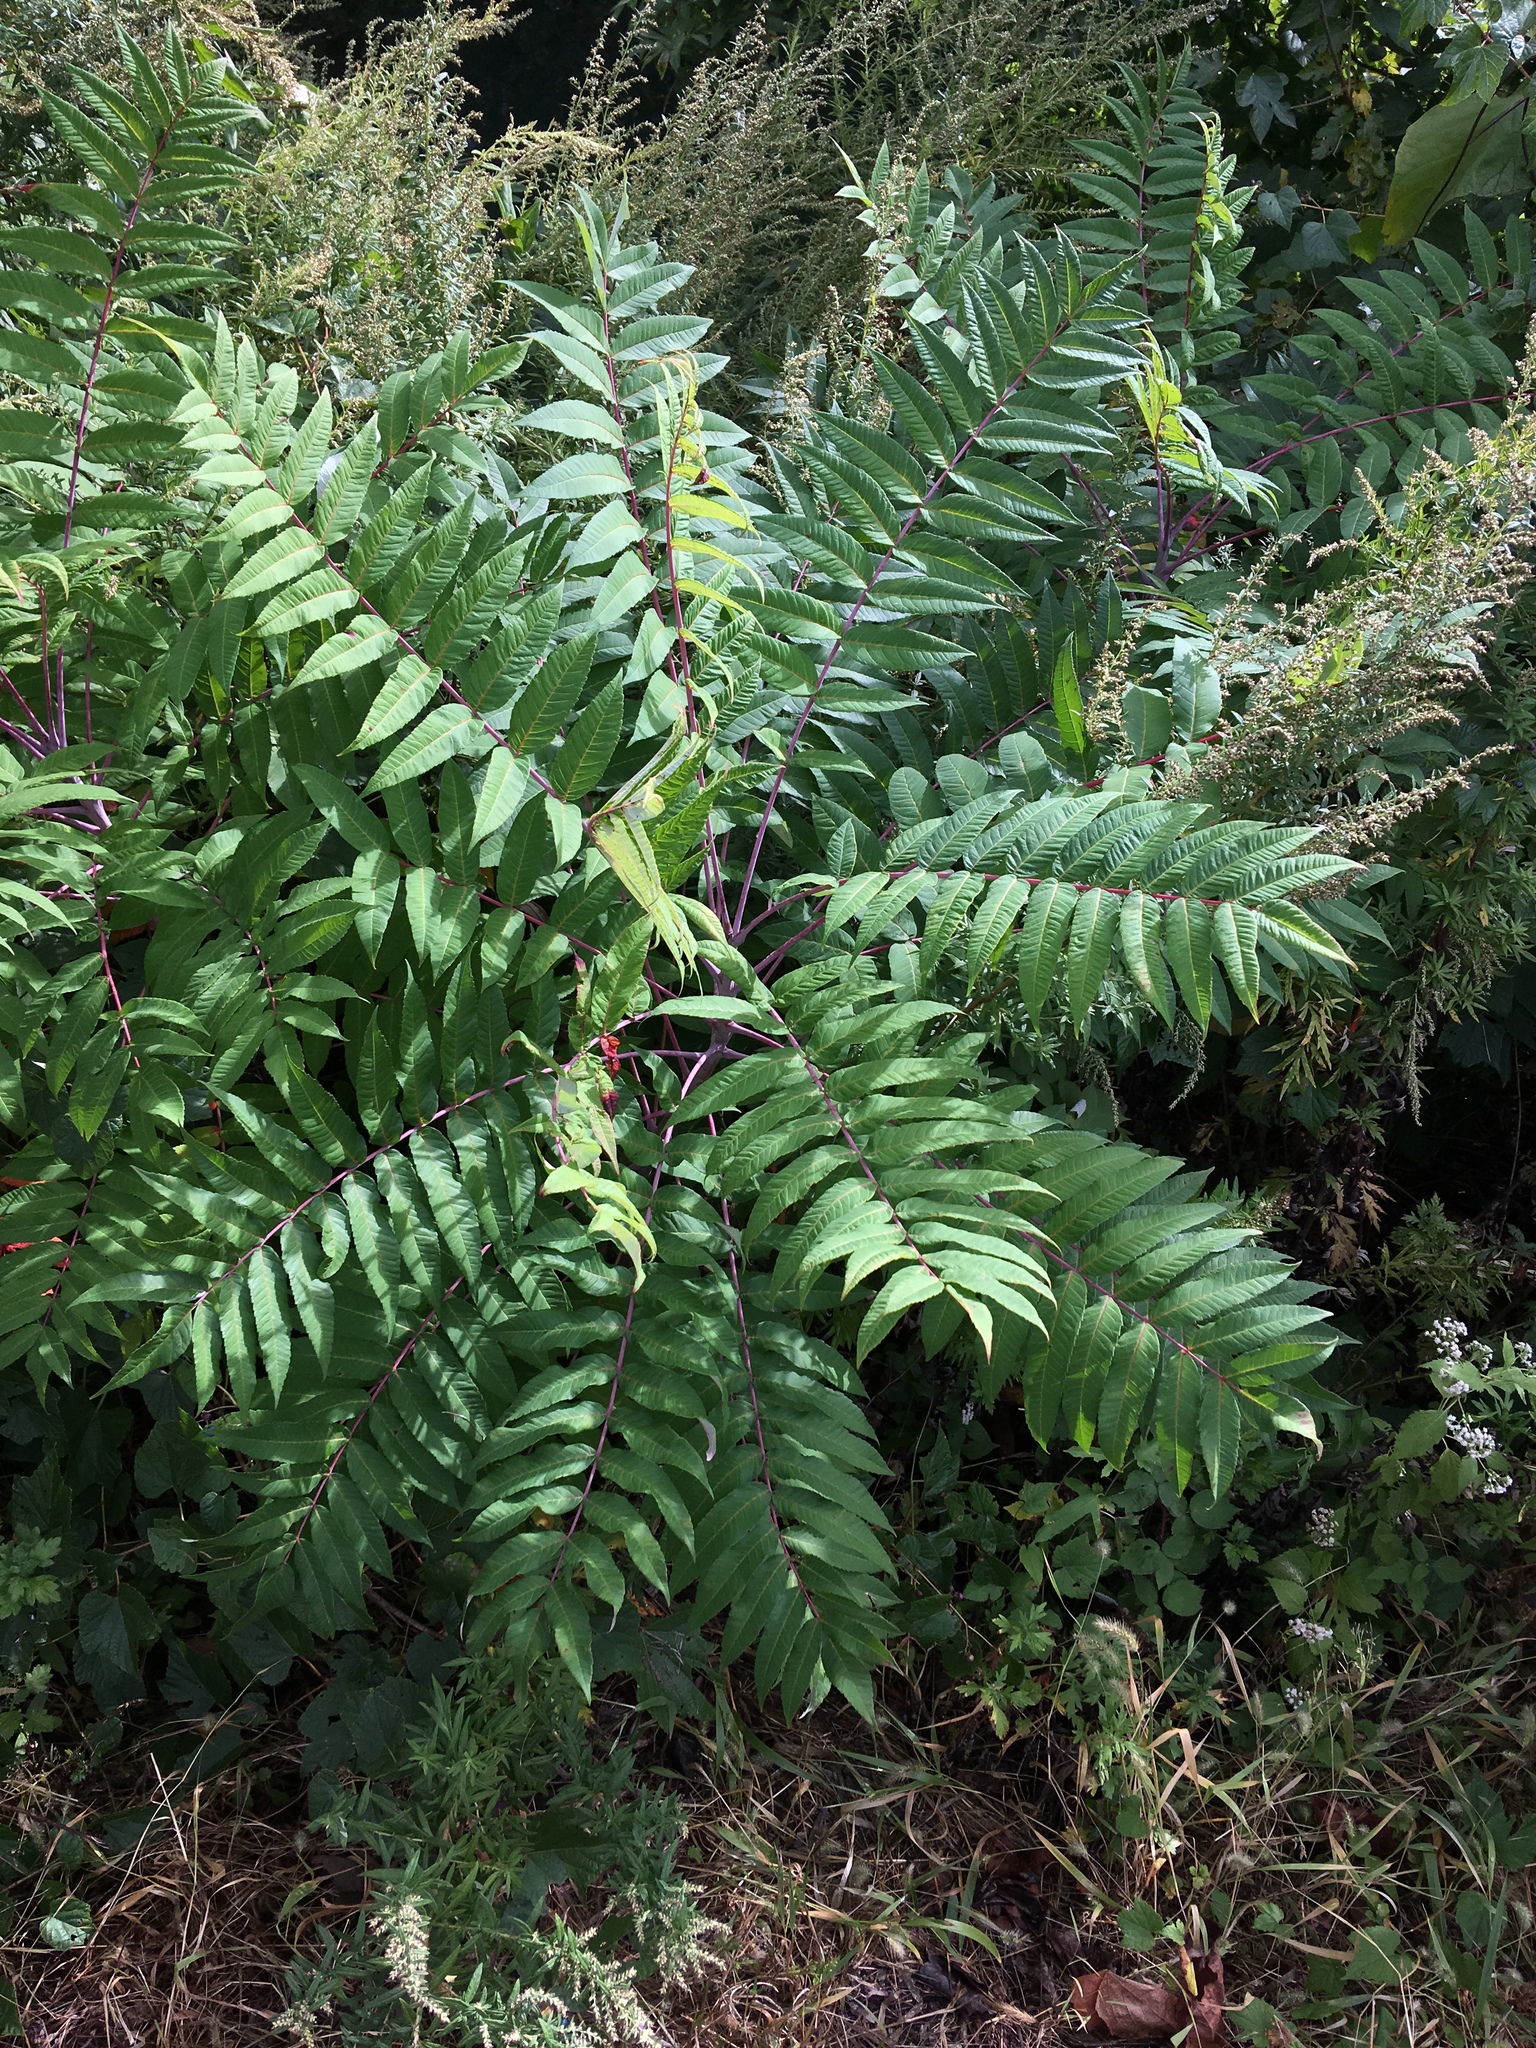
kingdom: Plantae
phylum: Tracheophyta
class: Magnoliopsida
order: Sapindales
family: Anacardiaceae
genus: Rhus
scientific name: Rhus glabra
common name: Scarlet sumac
